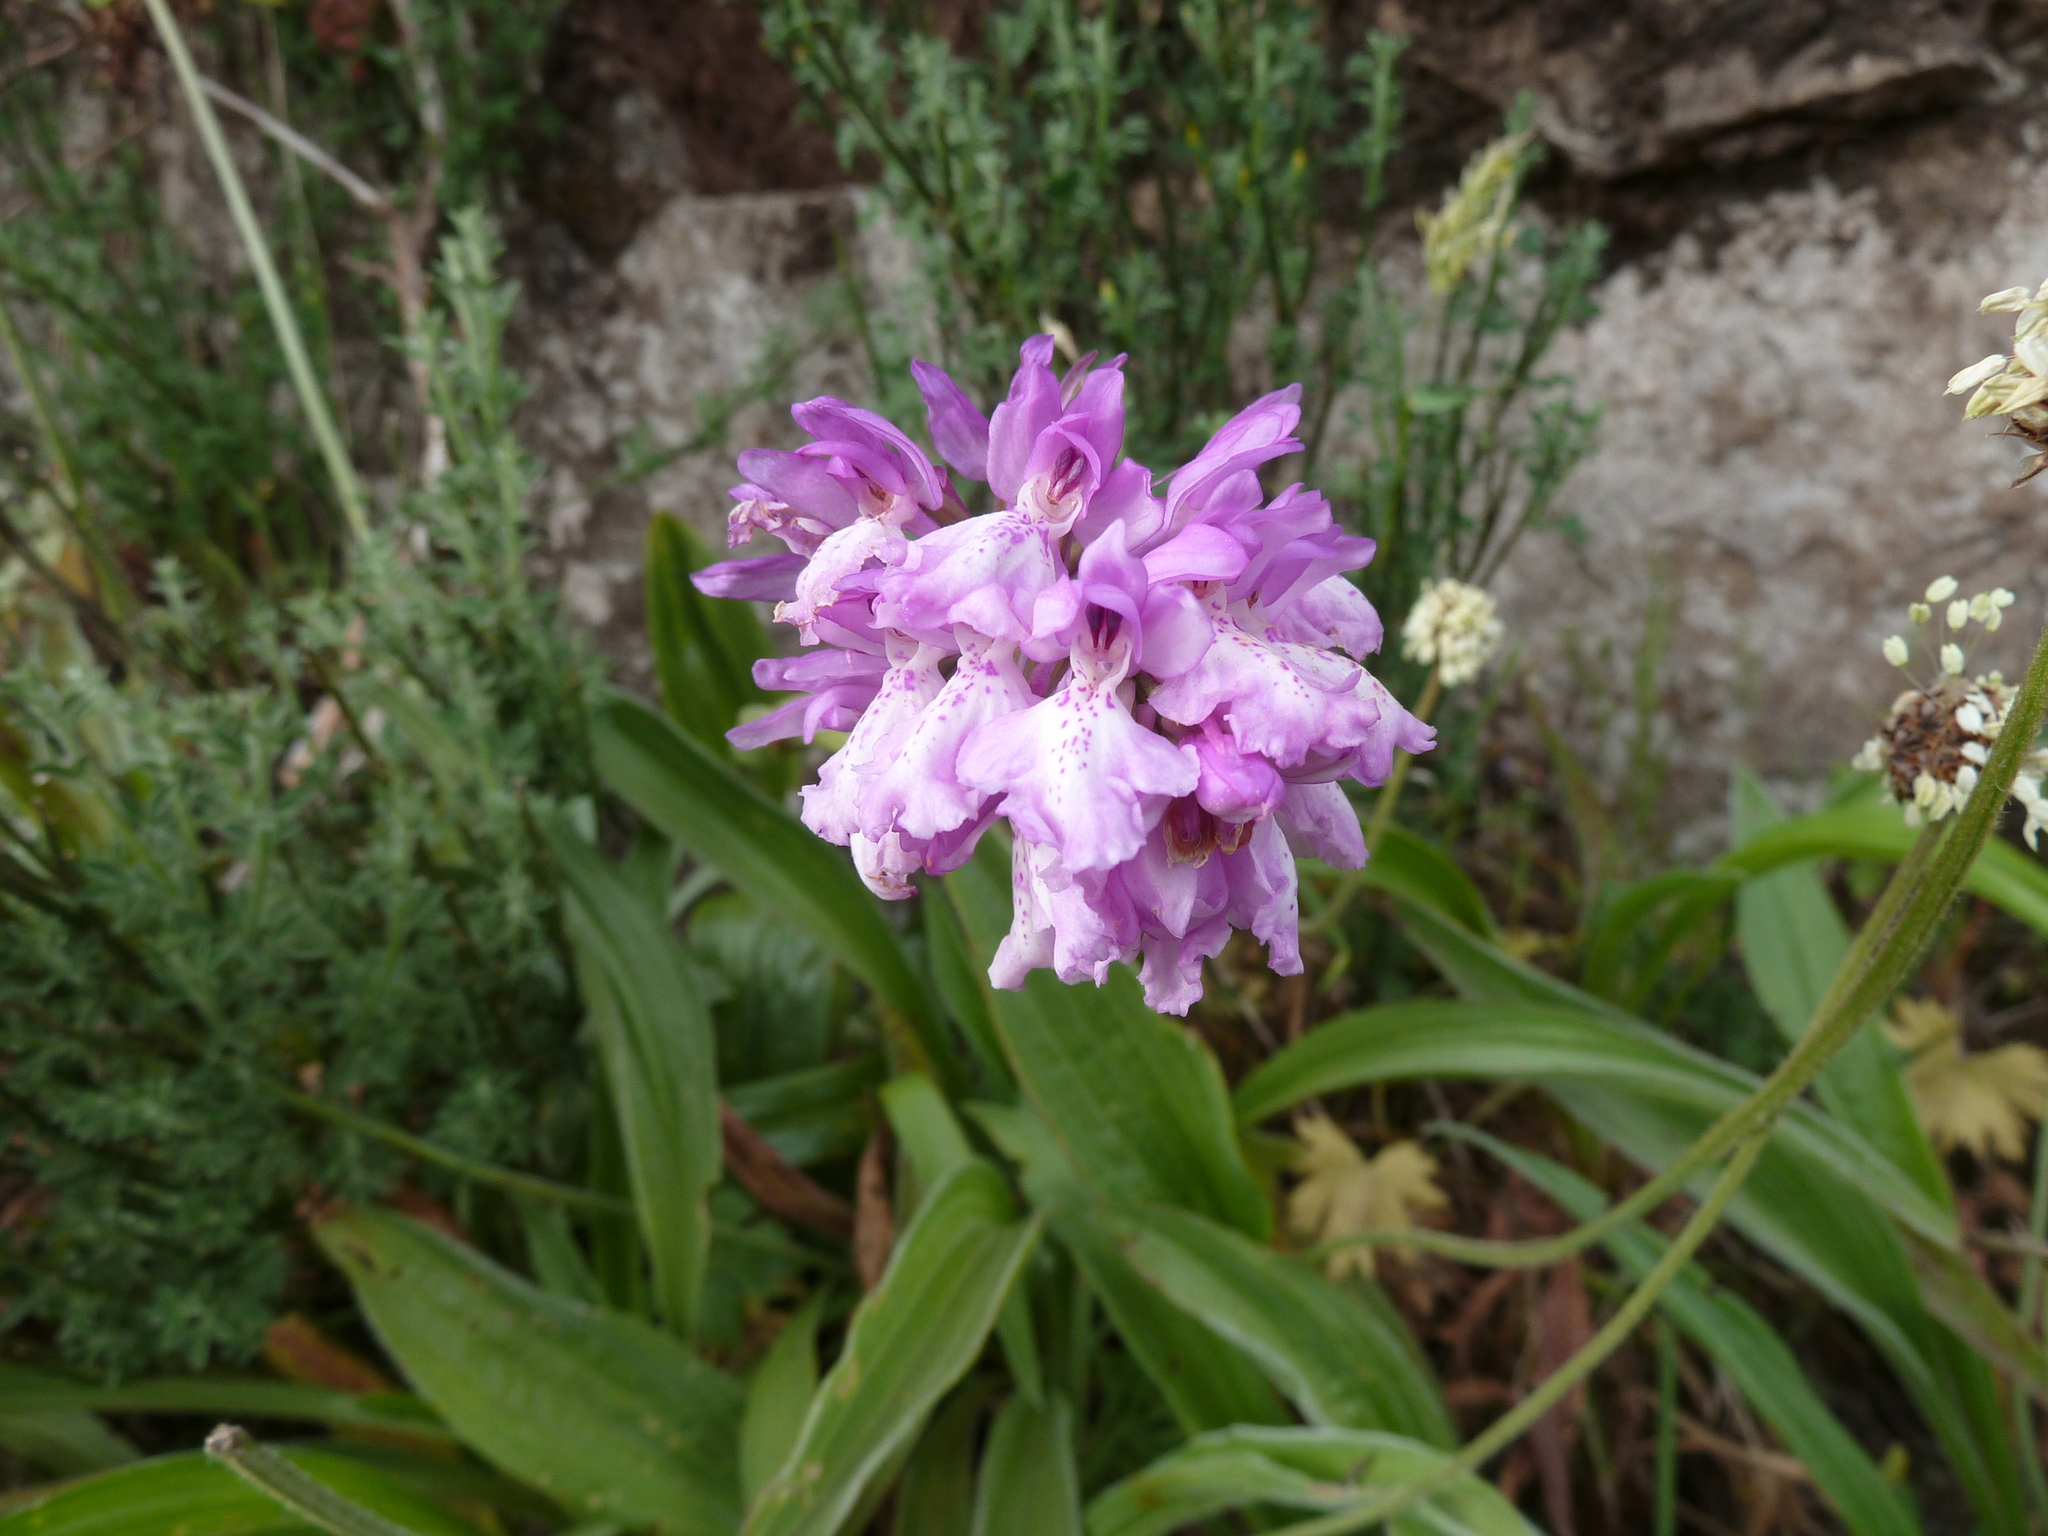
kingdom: Plantae
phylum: Tracheophyta
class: Liliopsida
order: Asparagales
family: Orchidaceae
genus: Orchis
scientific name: Orchis mascula
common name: Early-purple orchid
